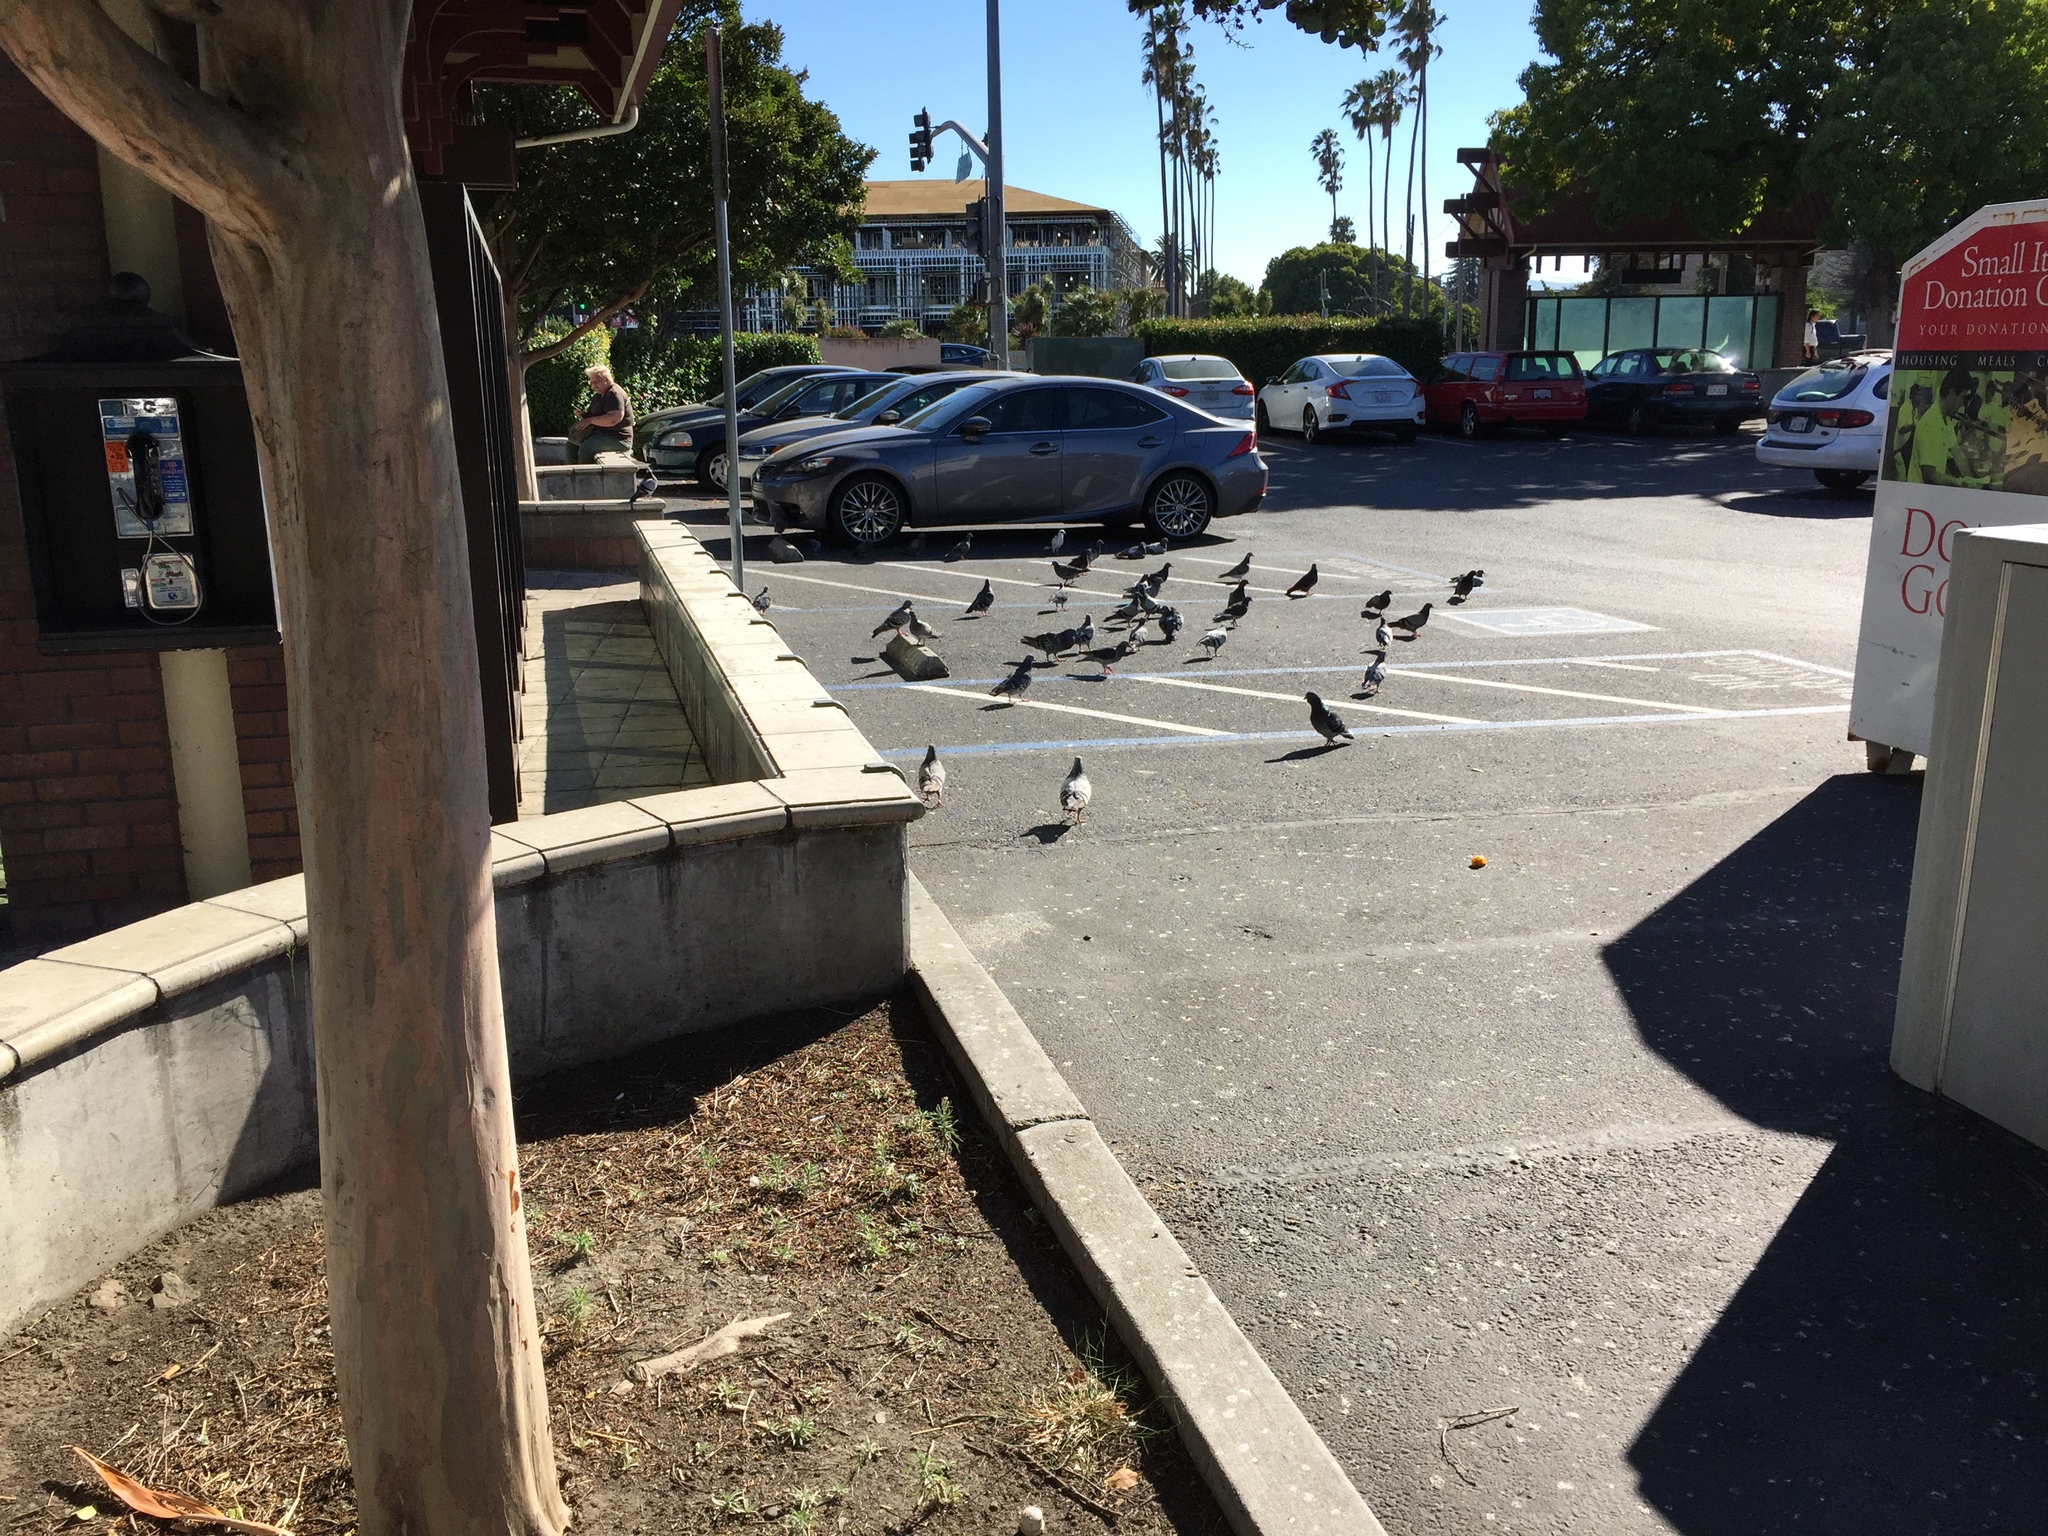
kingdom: Animalia
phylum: Chordata
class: Aves
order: Columbiformes
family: Columbidae
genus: Columba
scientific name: Columba livia
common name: Rock pigeon
